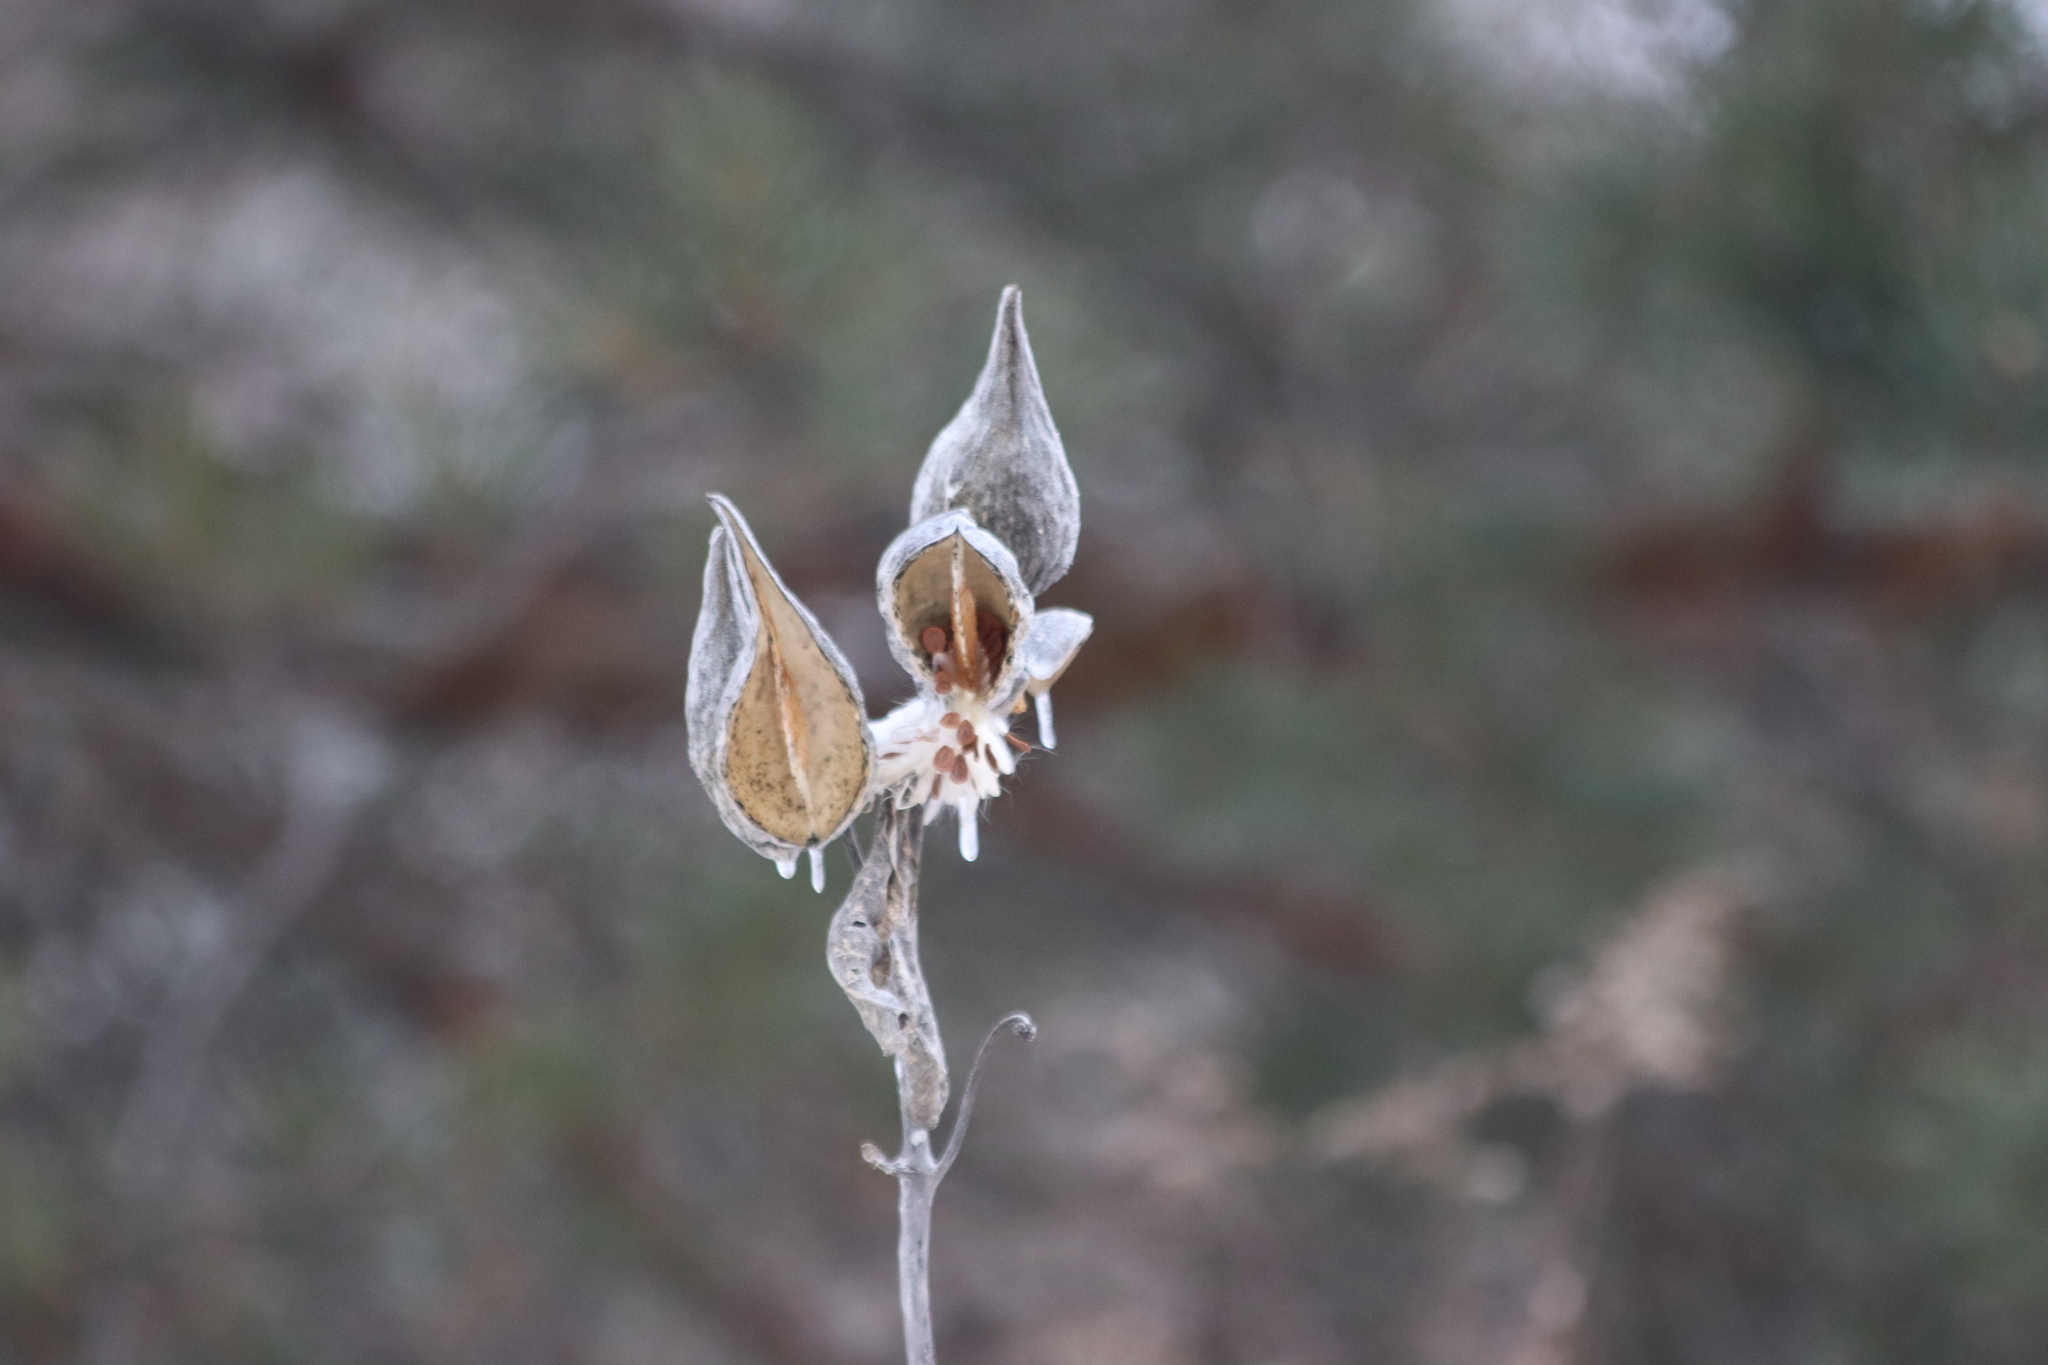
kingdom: Plantae
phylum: Tracheophyta
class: Magnoliopsida
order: Gentianales
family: Apocynaceae
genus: Asclepias
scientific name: Asclepias syriaca
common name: Common milkweed
